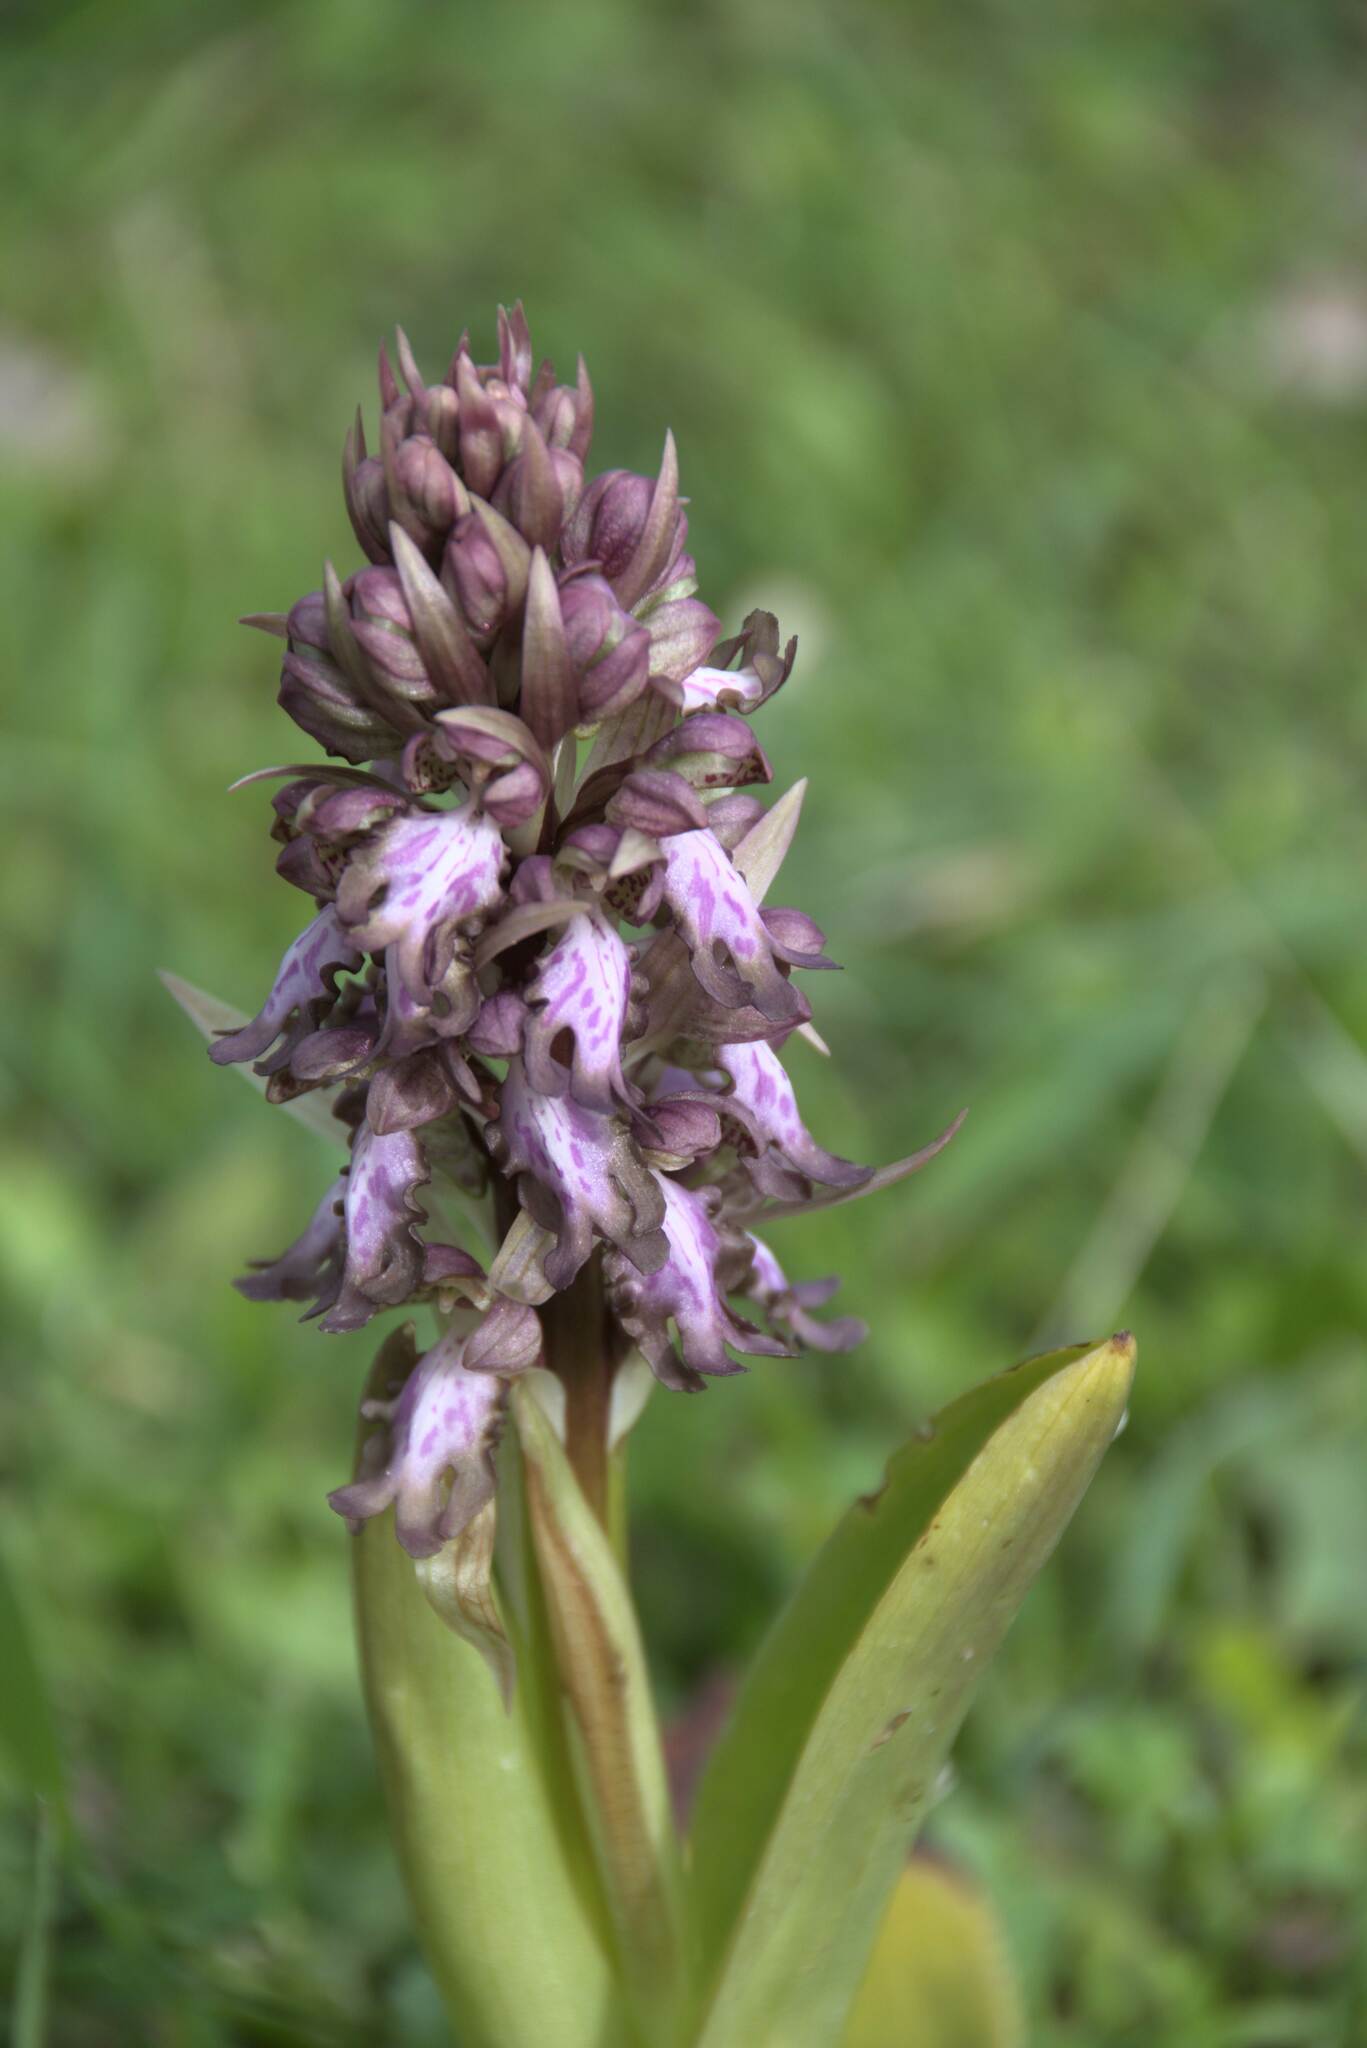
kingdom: Plantae
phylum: Tracheophyta
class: Liliopsida
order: Asparagales
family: Orchidaceae
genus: Himantoglossum
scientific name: Himantoglossum robertianum
